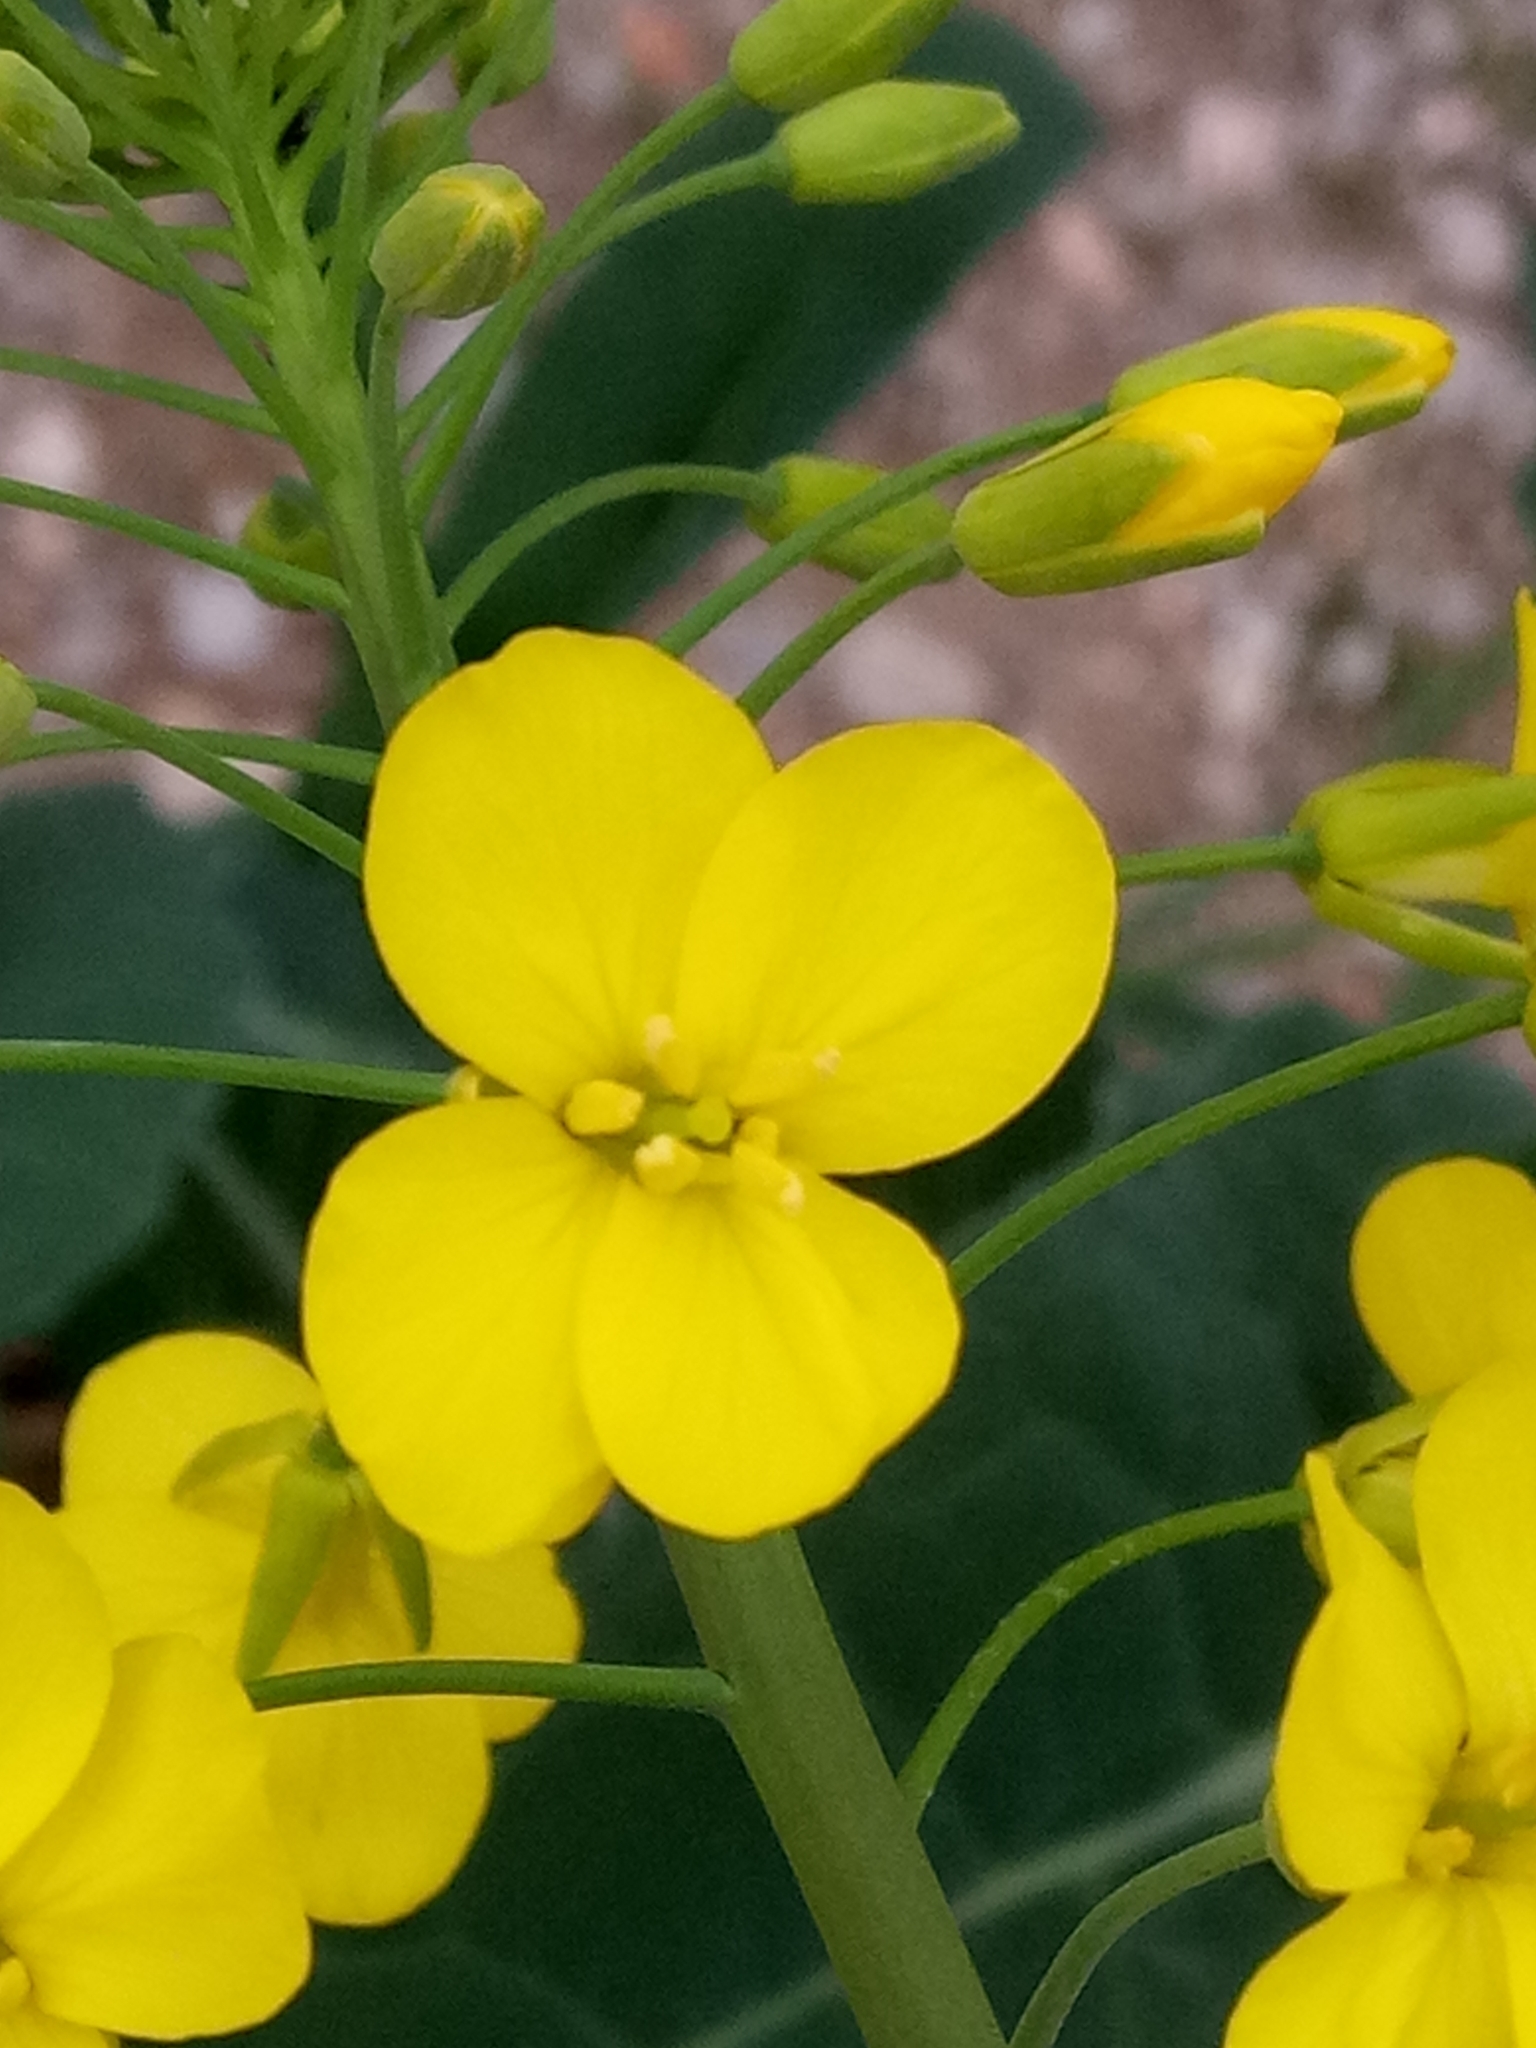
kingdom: Plantae
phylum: Tracheophyta
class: Magnoliopsida
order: Brassicales
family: Brassicaceae
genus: Brassica
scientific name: Brassica napus
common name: Rape
